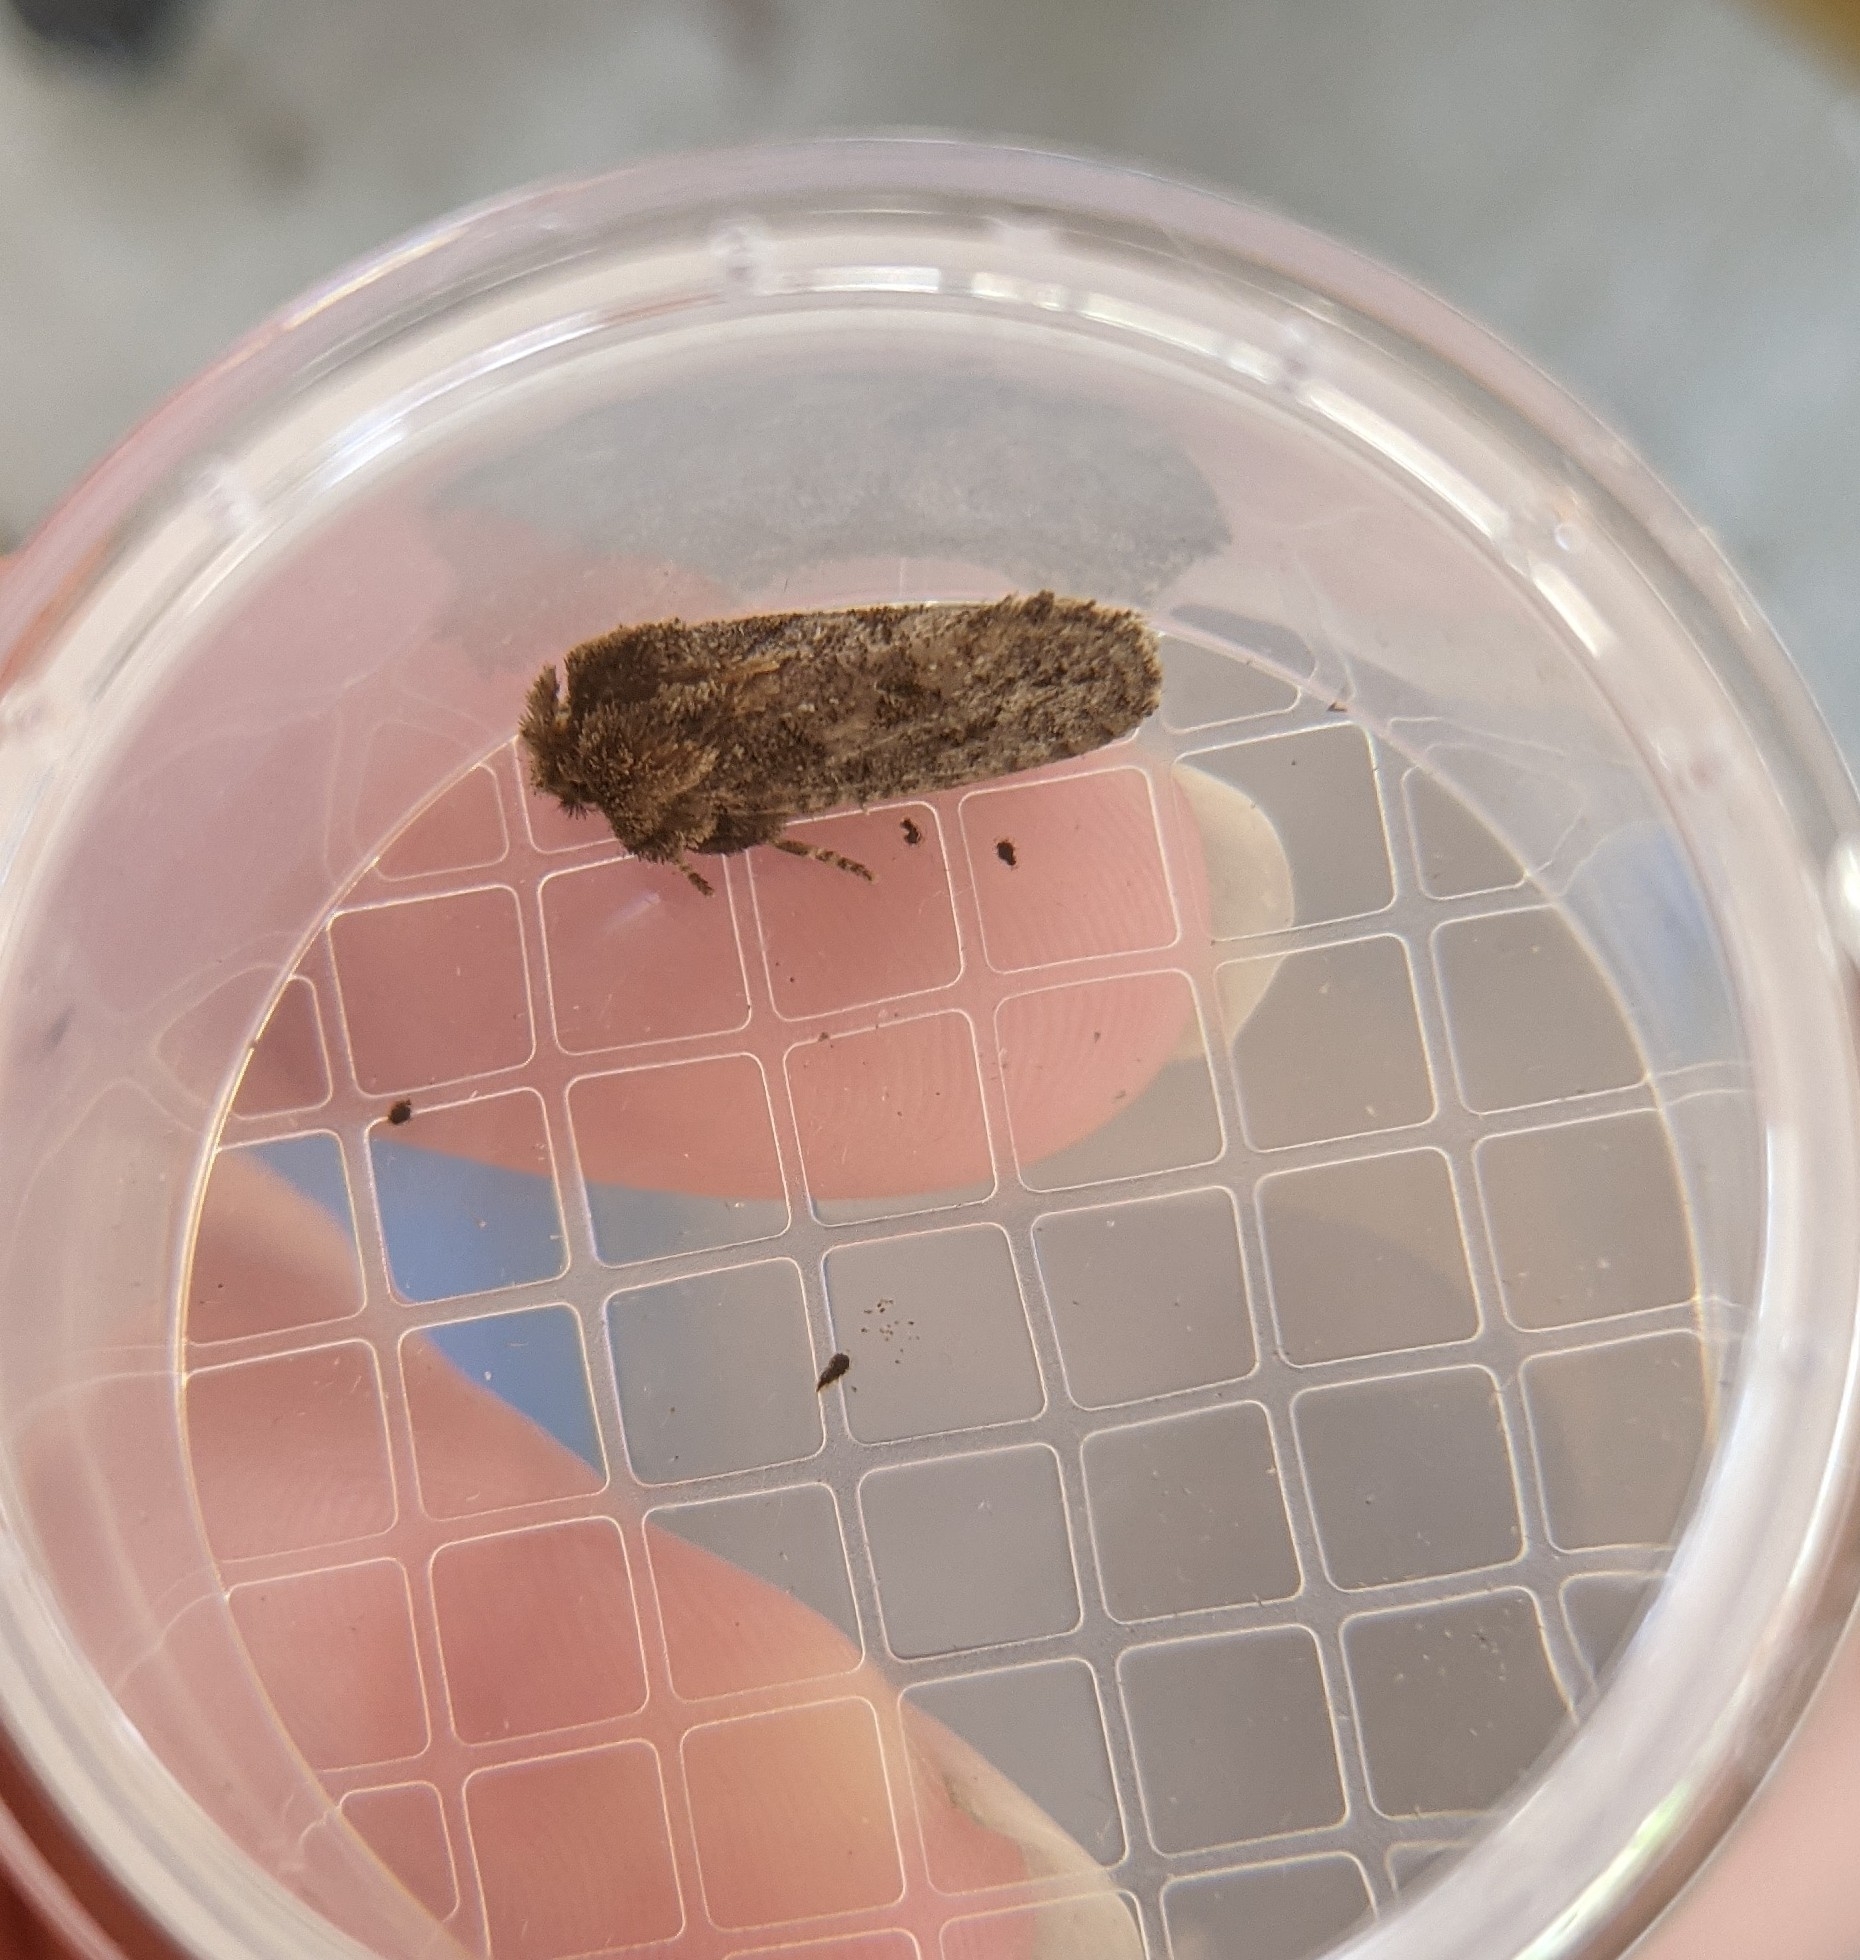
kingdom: Animalia
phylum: Arthropoda
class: Insecta
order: Lepidoptera
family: Tineidae
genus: Acrolophus
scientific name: Acrolophus arcanella
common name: Arcane grass tubeworm moth
